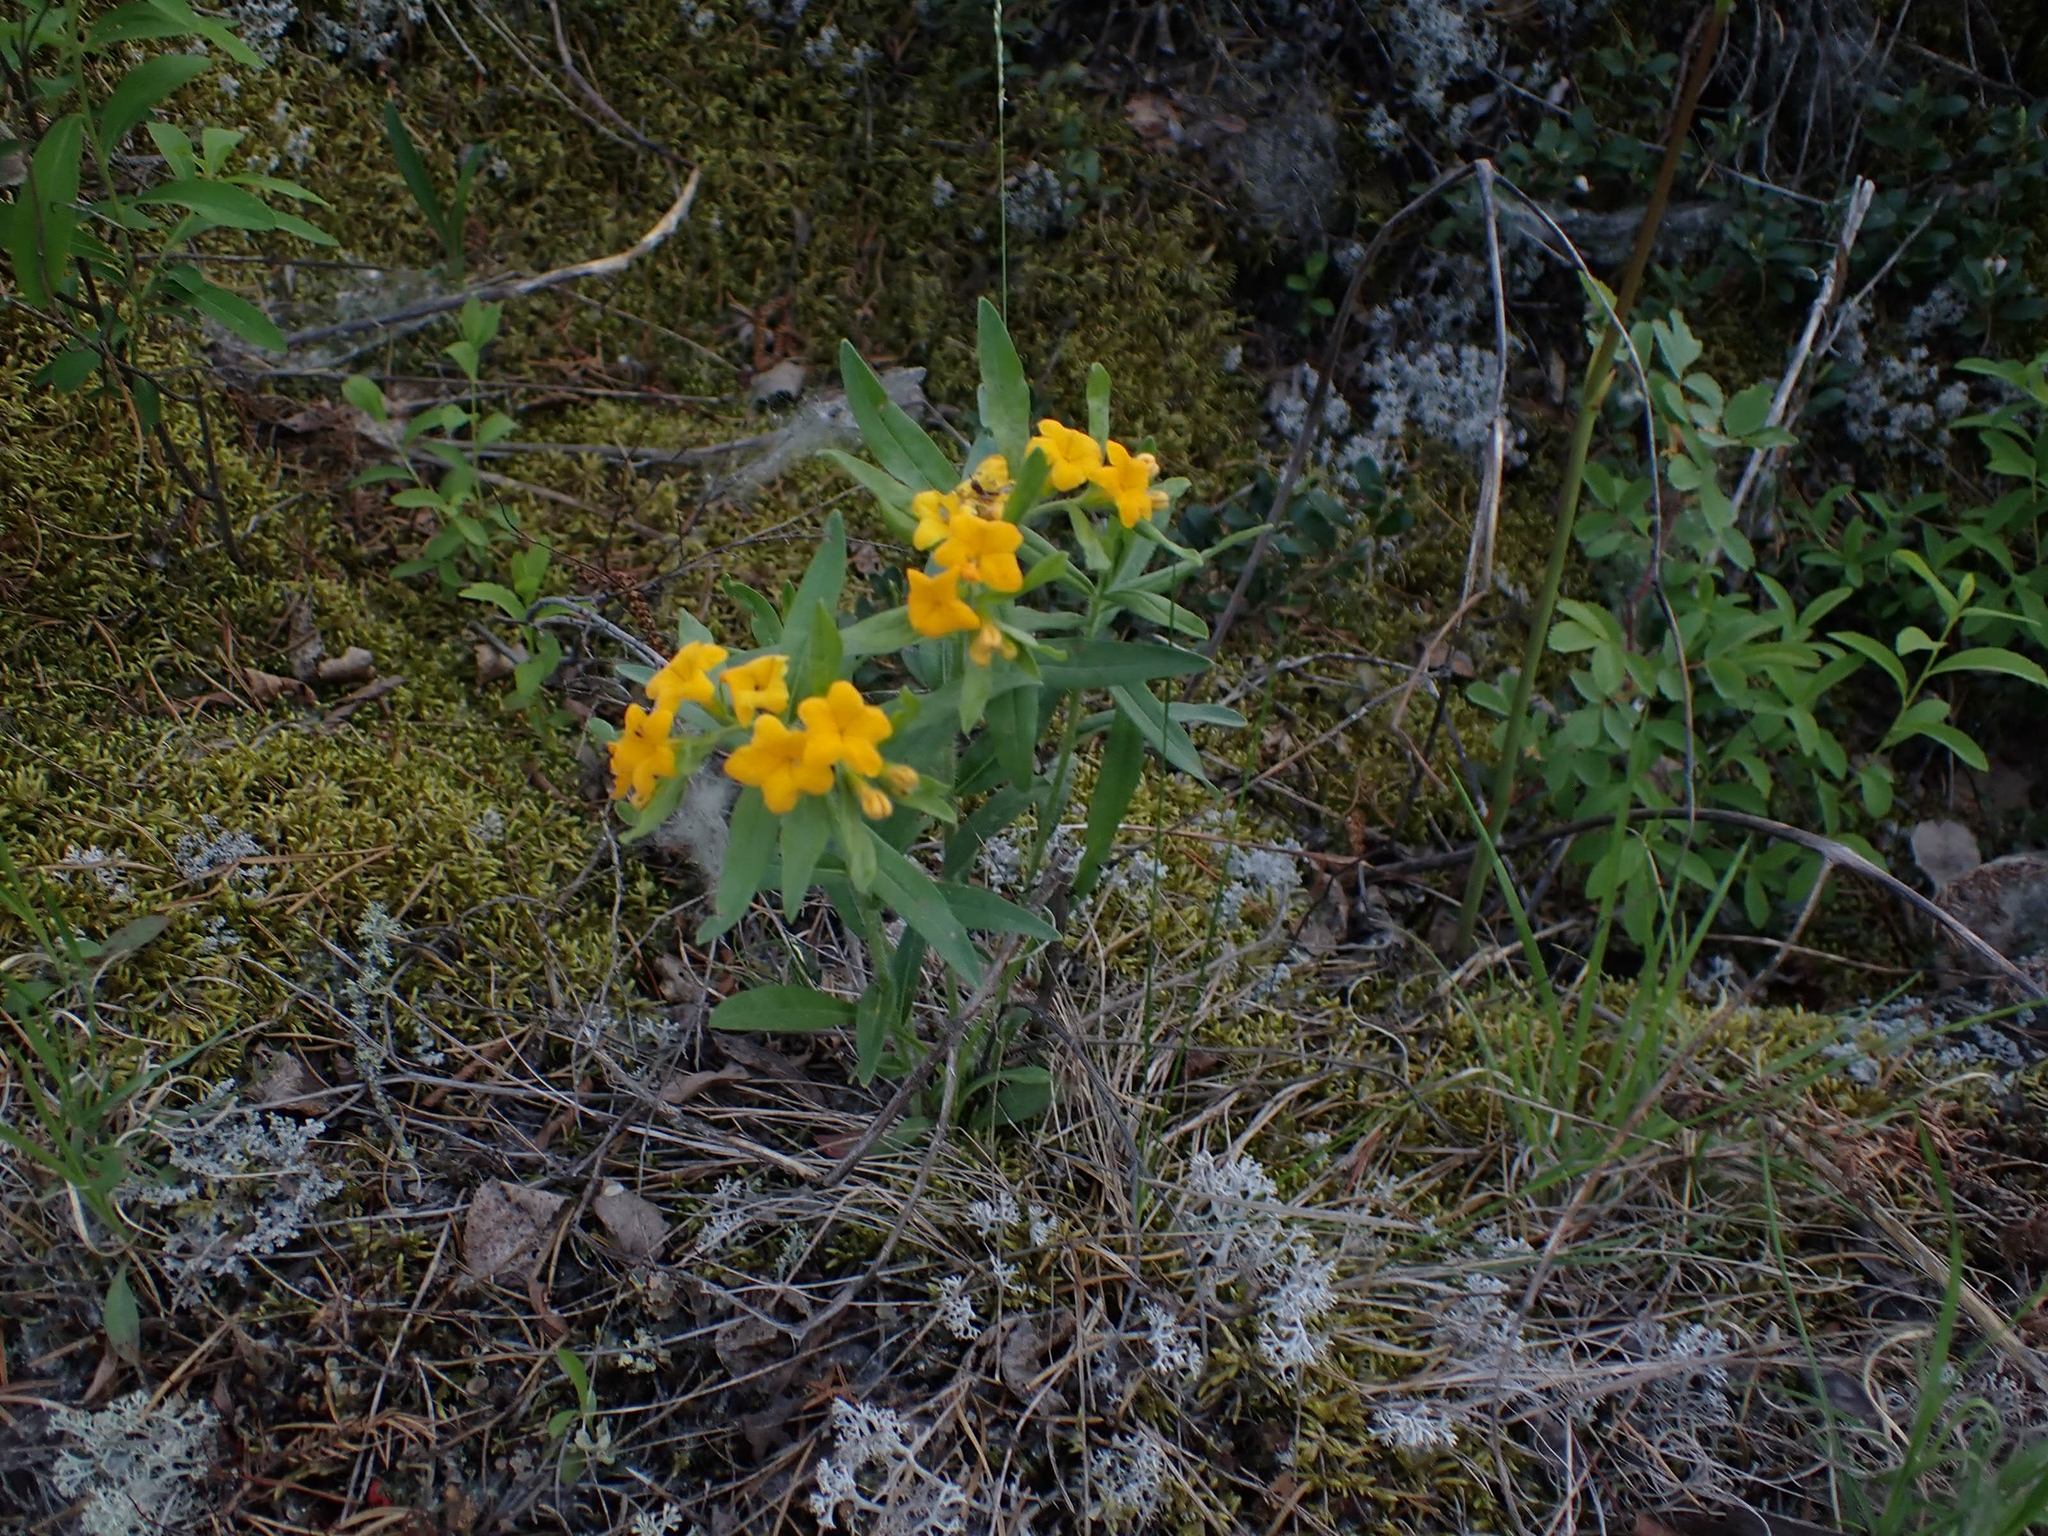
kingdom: Plantae
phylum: Tracheophyta
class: Magnoliopsida
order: Boraginales
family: Boraginaceae
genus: Lithospermum
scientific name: Lithospermum canescens
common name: Hoary puccoon
